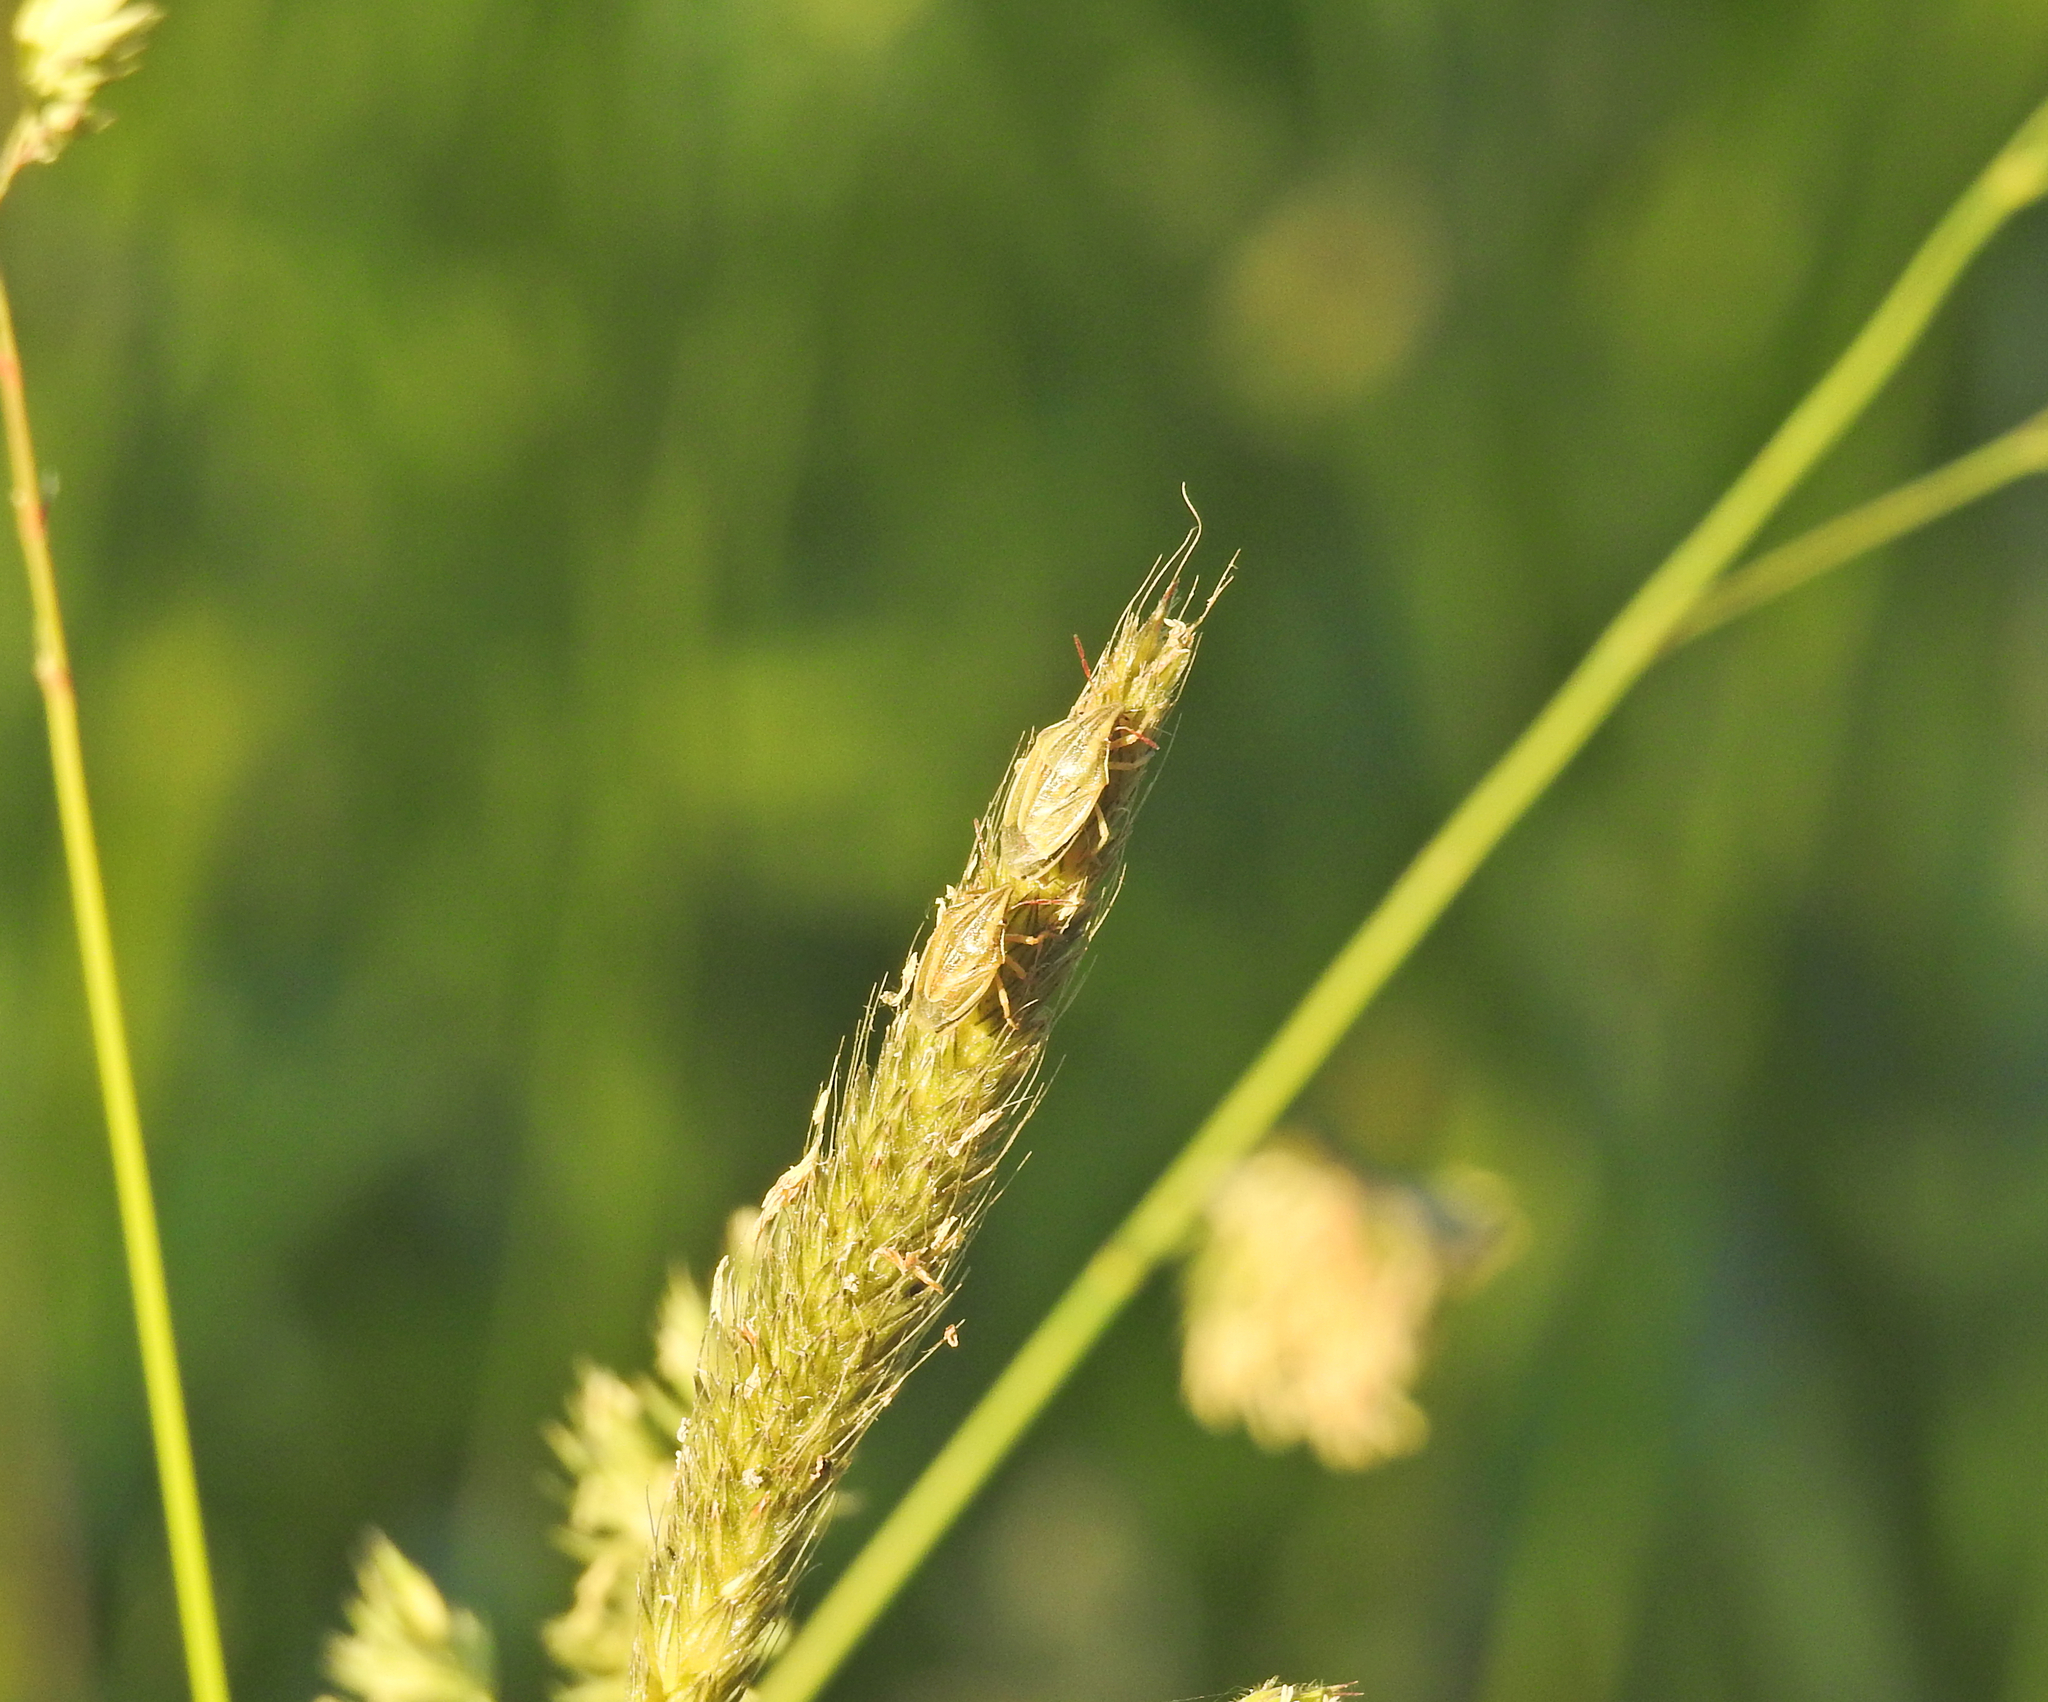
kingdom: Animalia
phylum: Arthropoda
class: Insecta
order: Hemiptera
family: Pentatomidae
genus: Aelia
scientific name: Aelia acuminata
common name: Bishop's mitre
